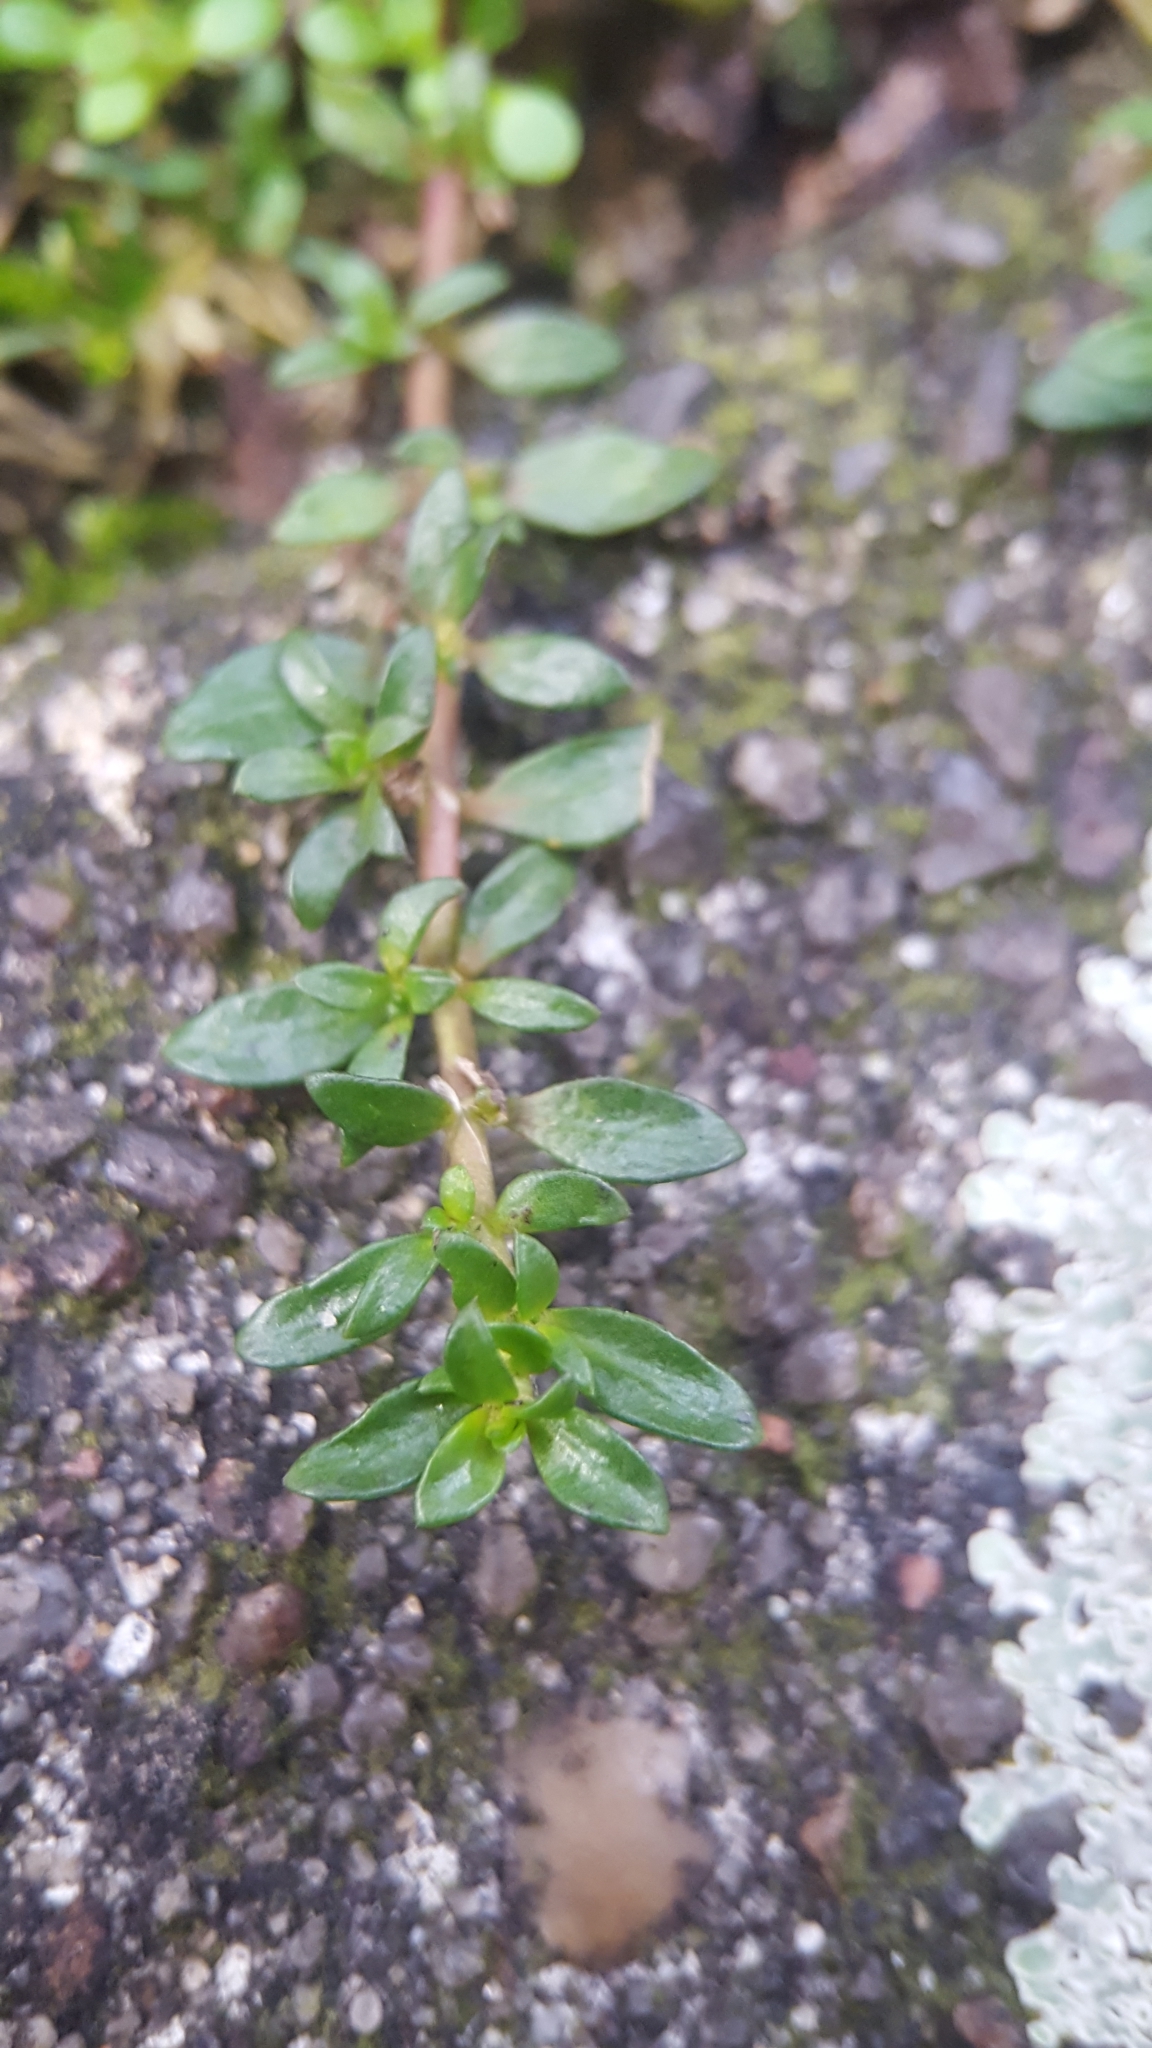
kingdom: Plantae
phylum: Tracheophyta
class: Magnoliopsida
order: Caryophyllales
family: Caryophyllaceae
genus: Herniaria
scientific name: Herniaria glabra
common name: Smooth rupturewort
